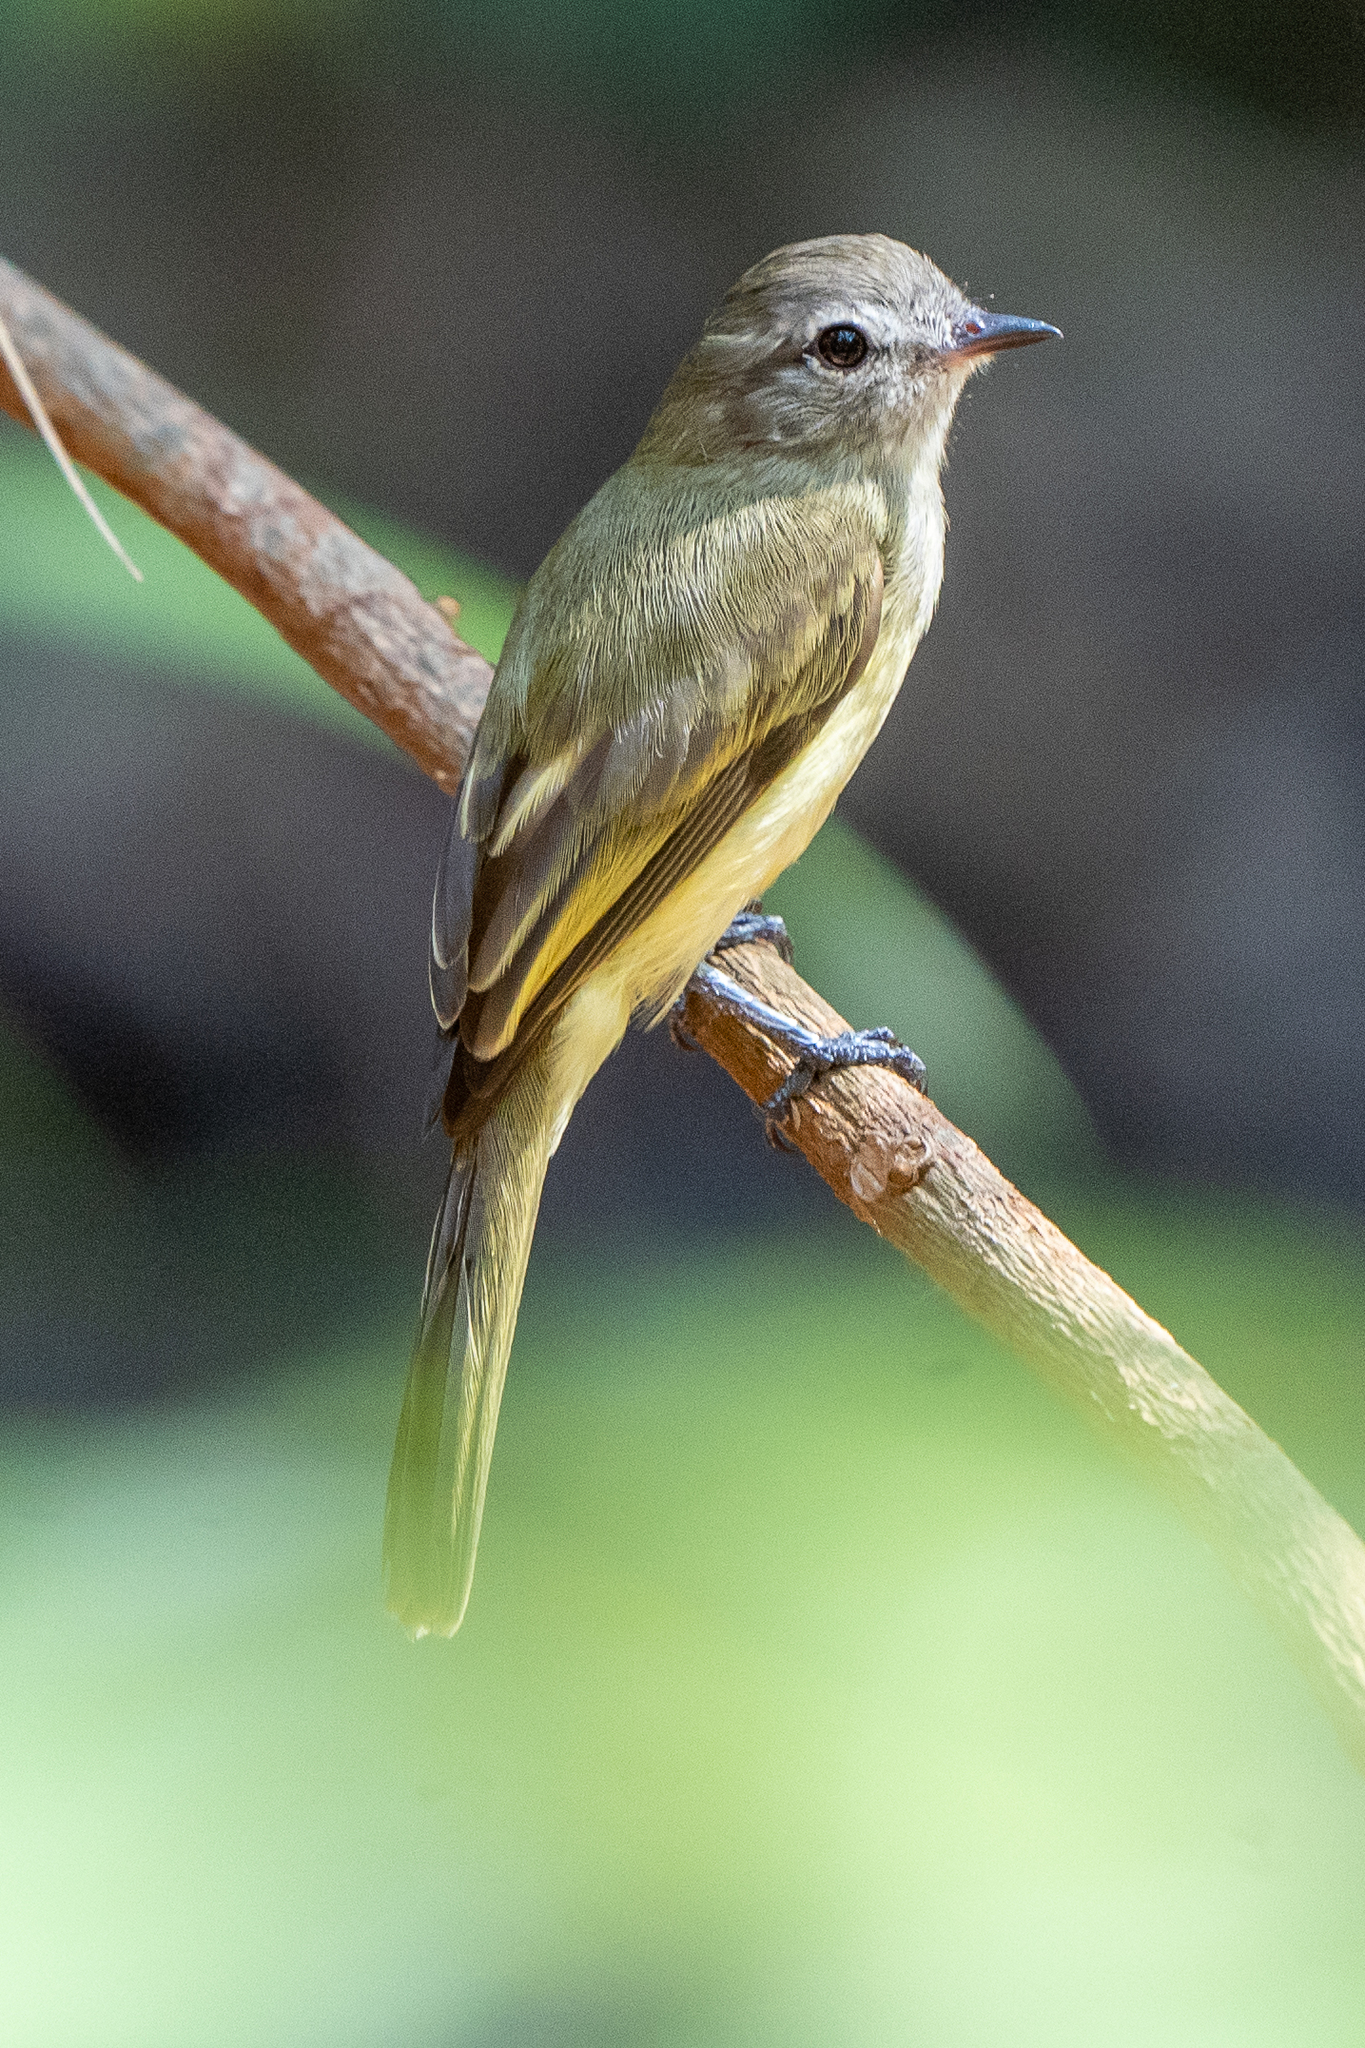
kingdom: Animalia
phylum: Chordata
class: Aves
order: Passeriformes
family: Tyrannidae
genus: Myiopagis
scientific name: Myiopagis viridicata
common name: Greenish elaenia
